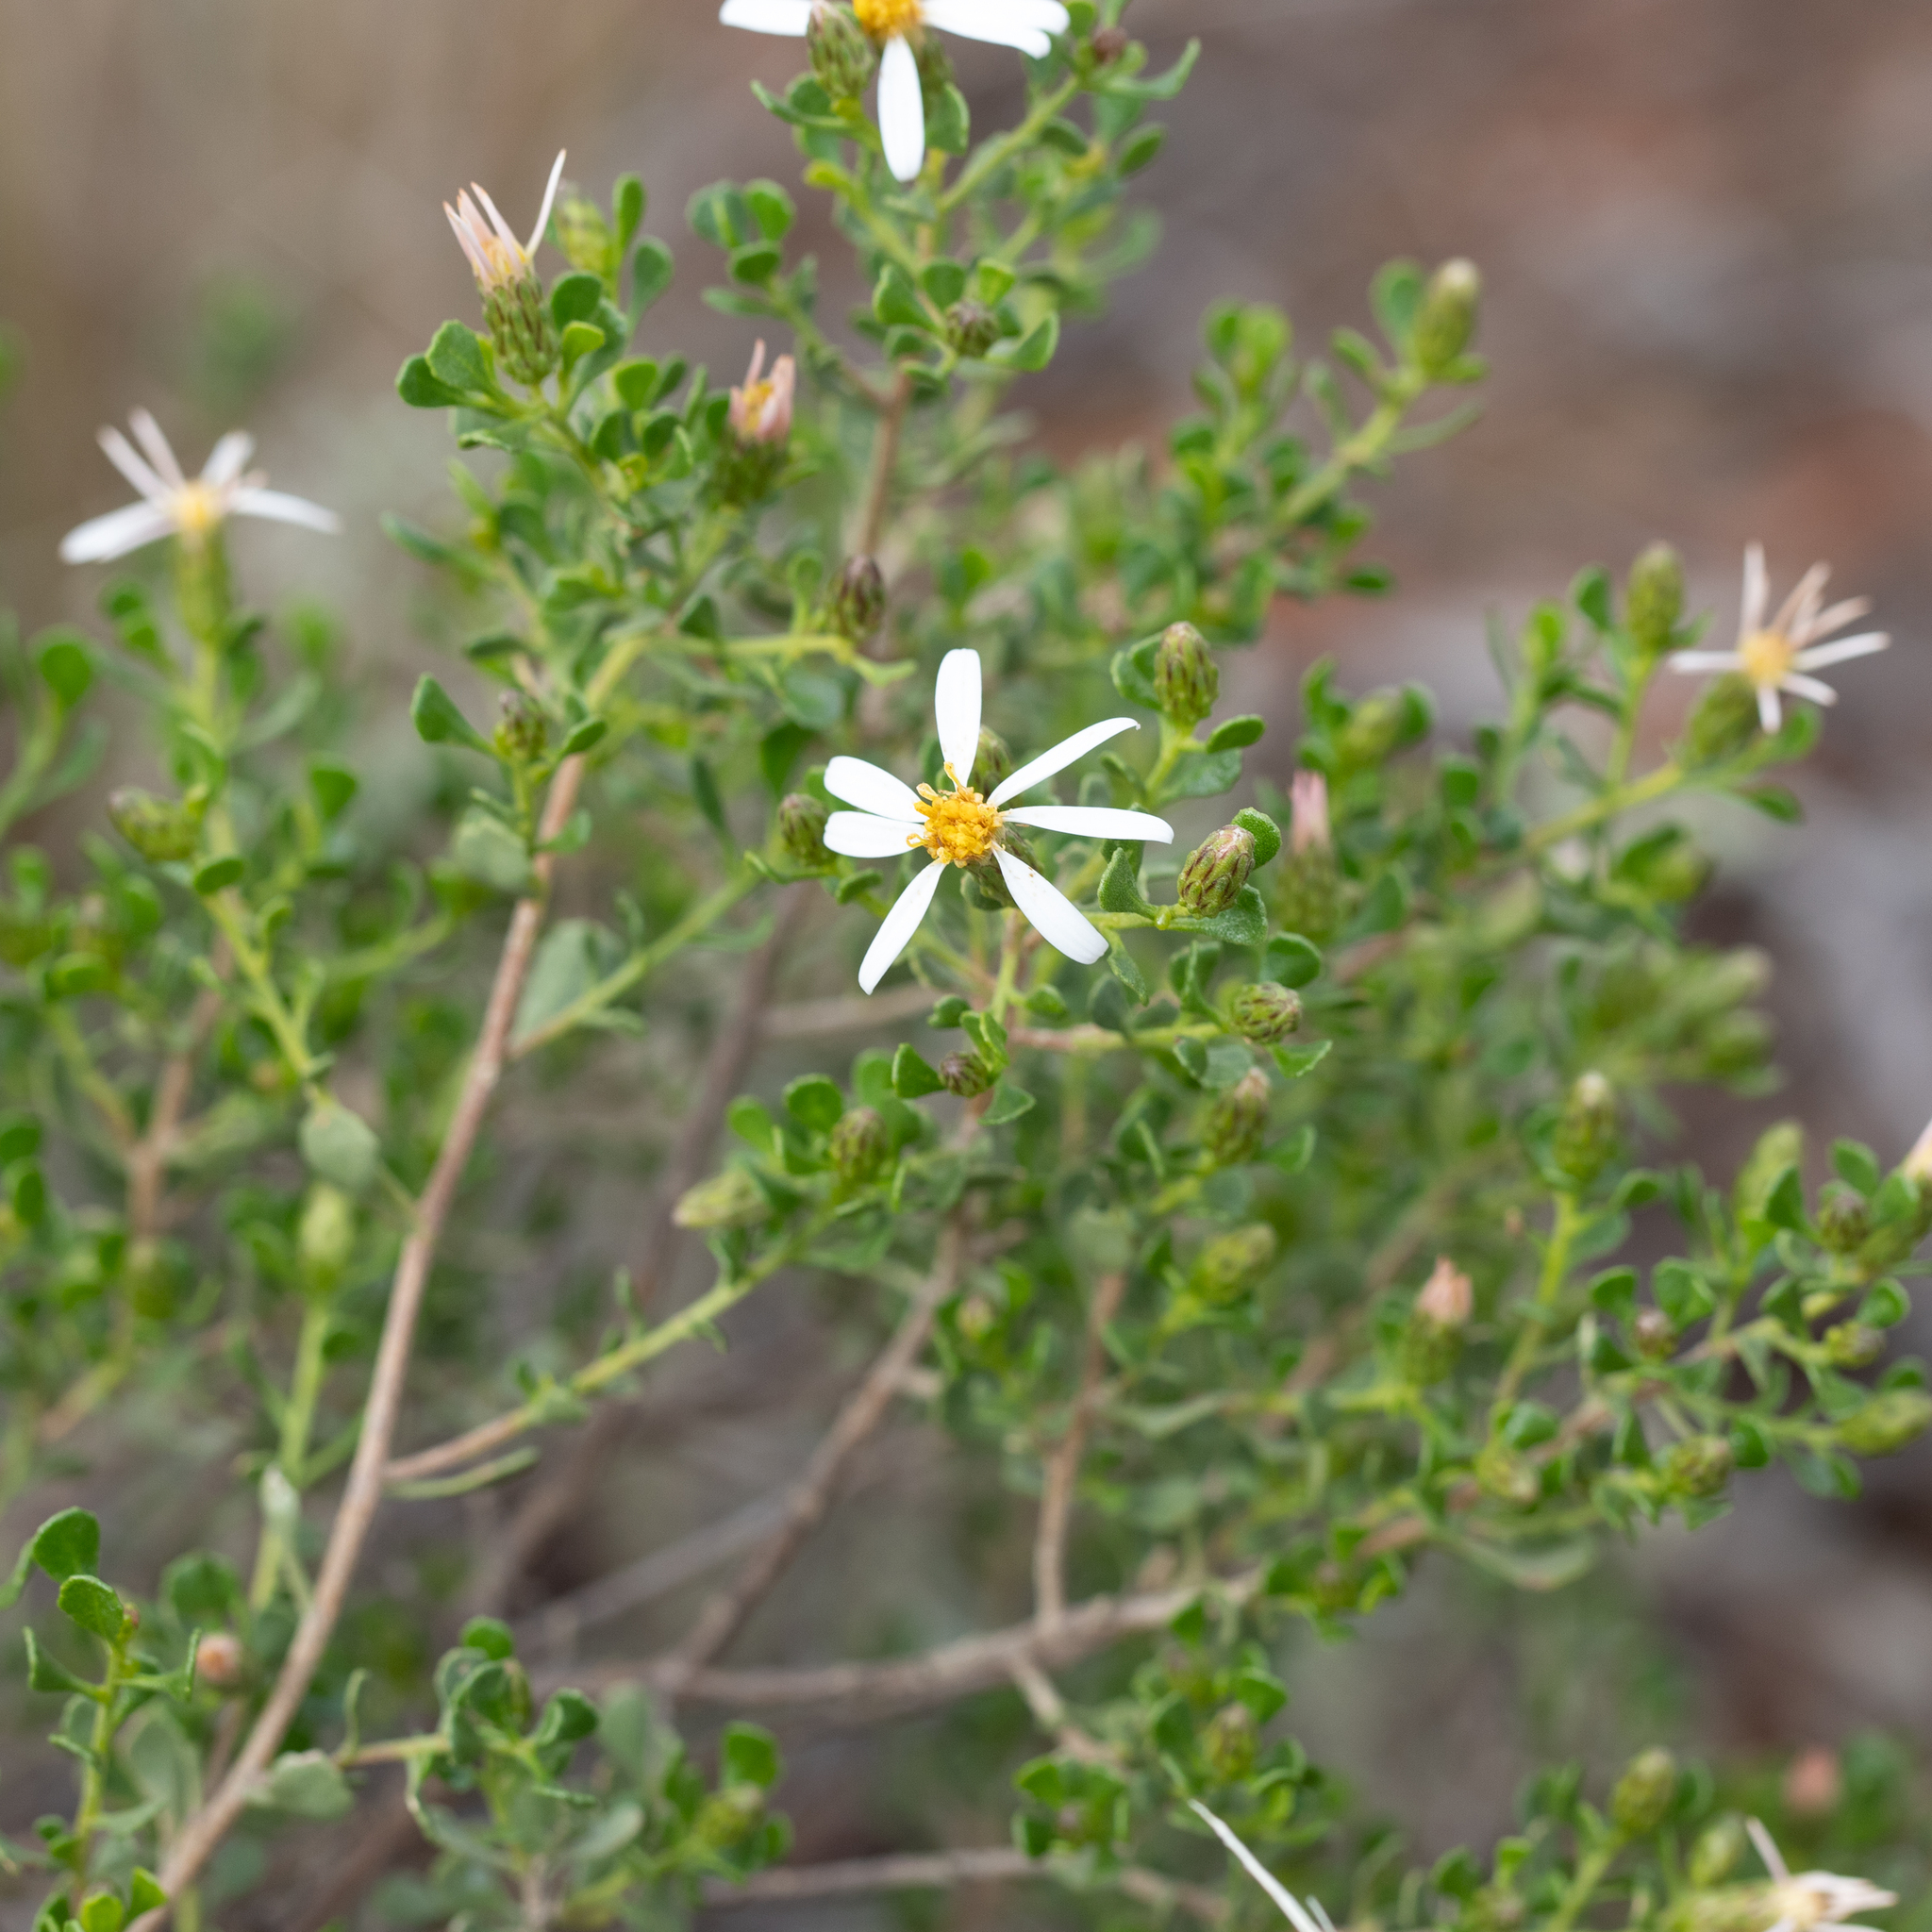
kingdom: Plantae
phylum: Tracheophyta
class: Magnoliopsida
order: Asterales
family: Asteraceae
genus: Walsholaria
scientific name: Walsholaria muelleri
